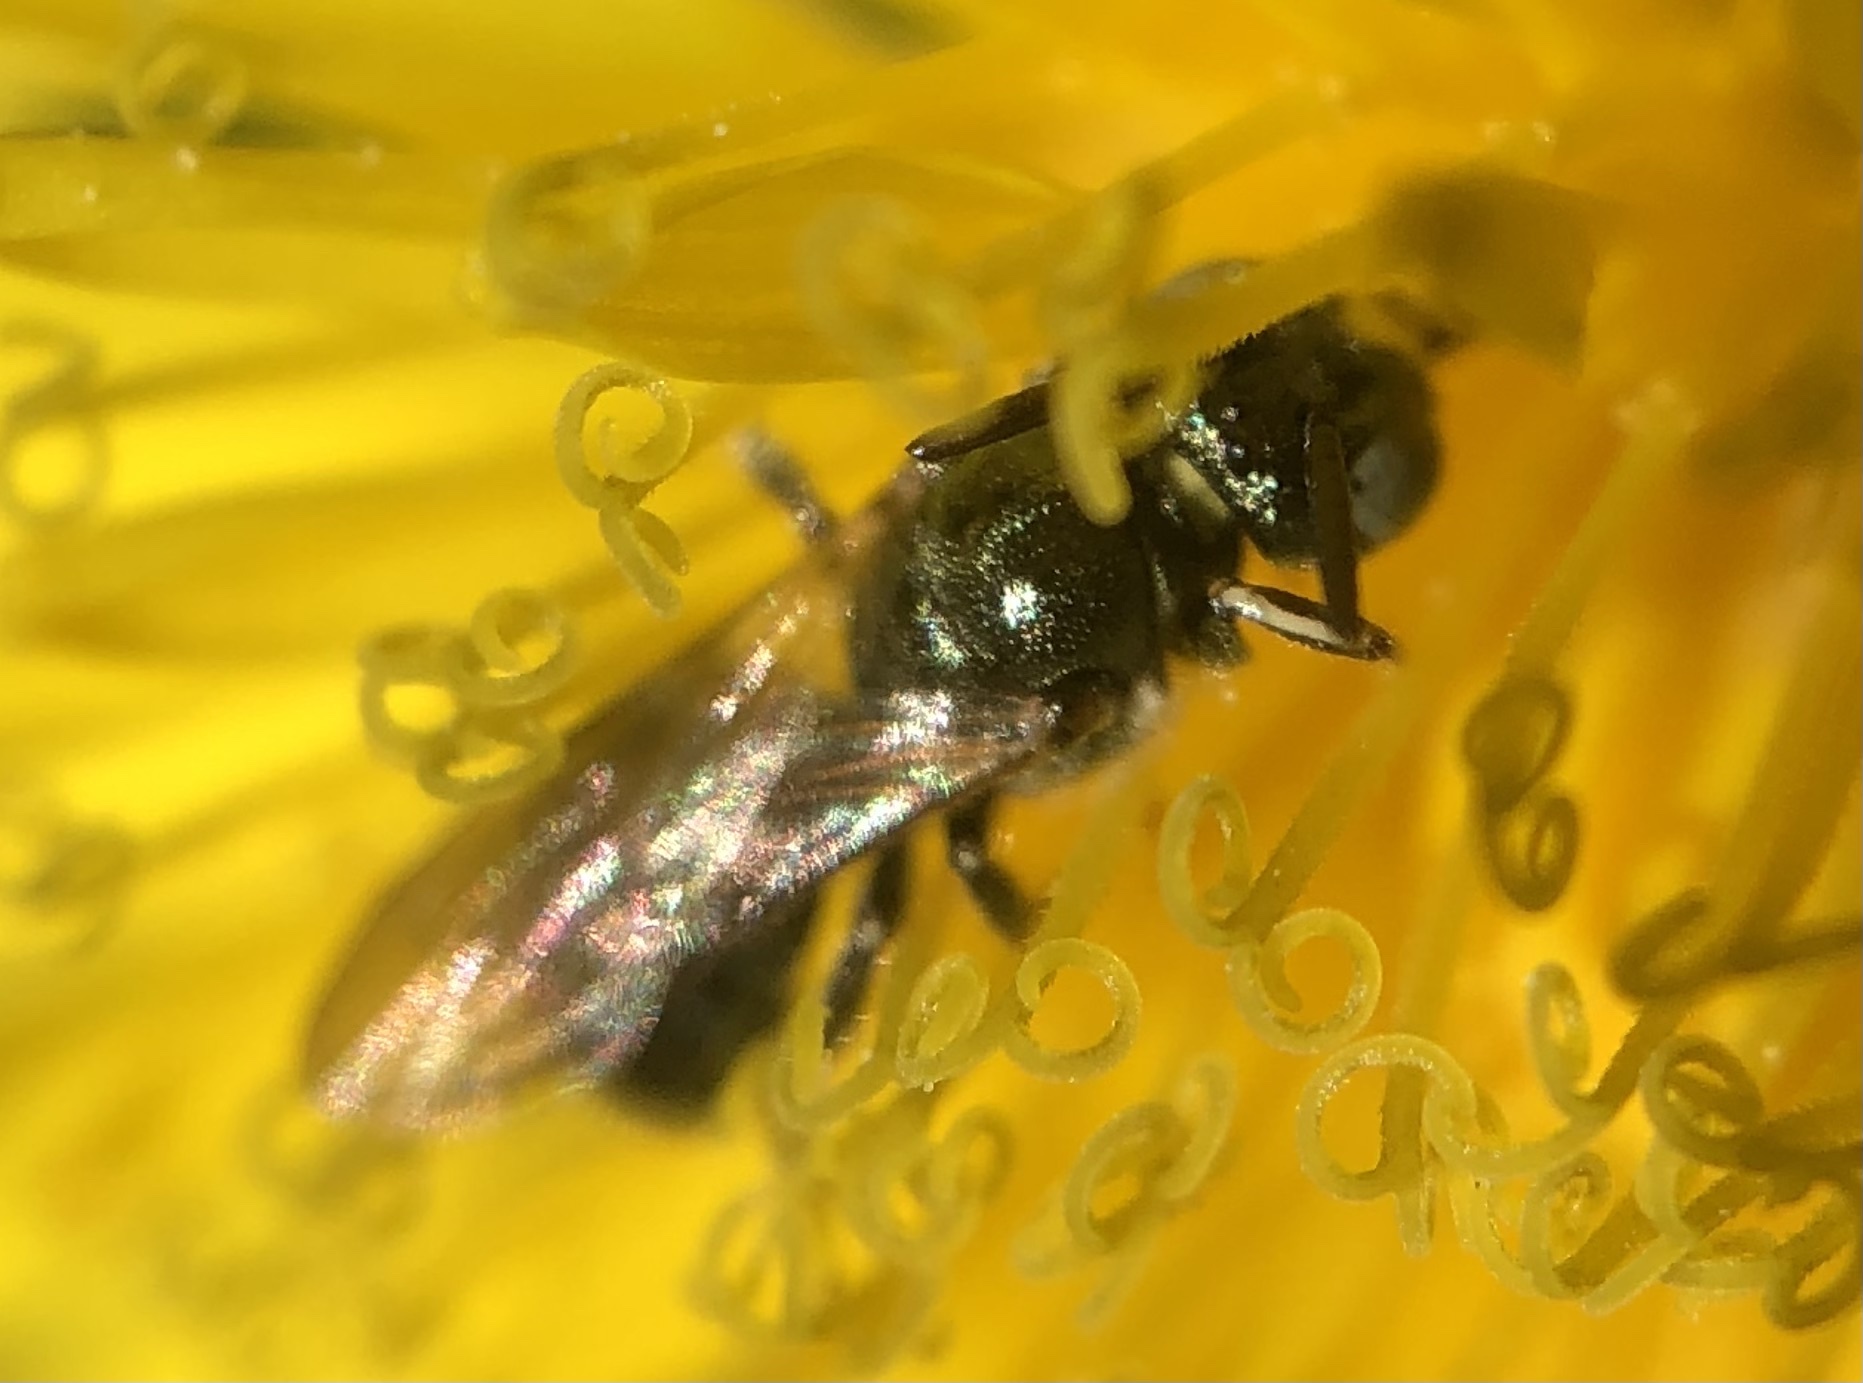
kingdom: Animalia
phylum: Arthropoda
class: Insecta
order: Hymenoptera
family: Apidae
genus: Ceratina
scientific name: Ceratina strenua
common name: Nimble carpenter bee
